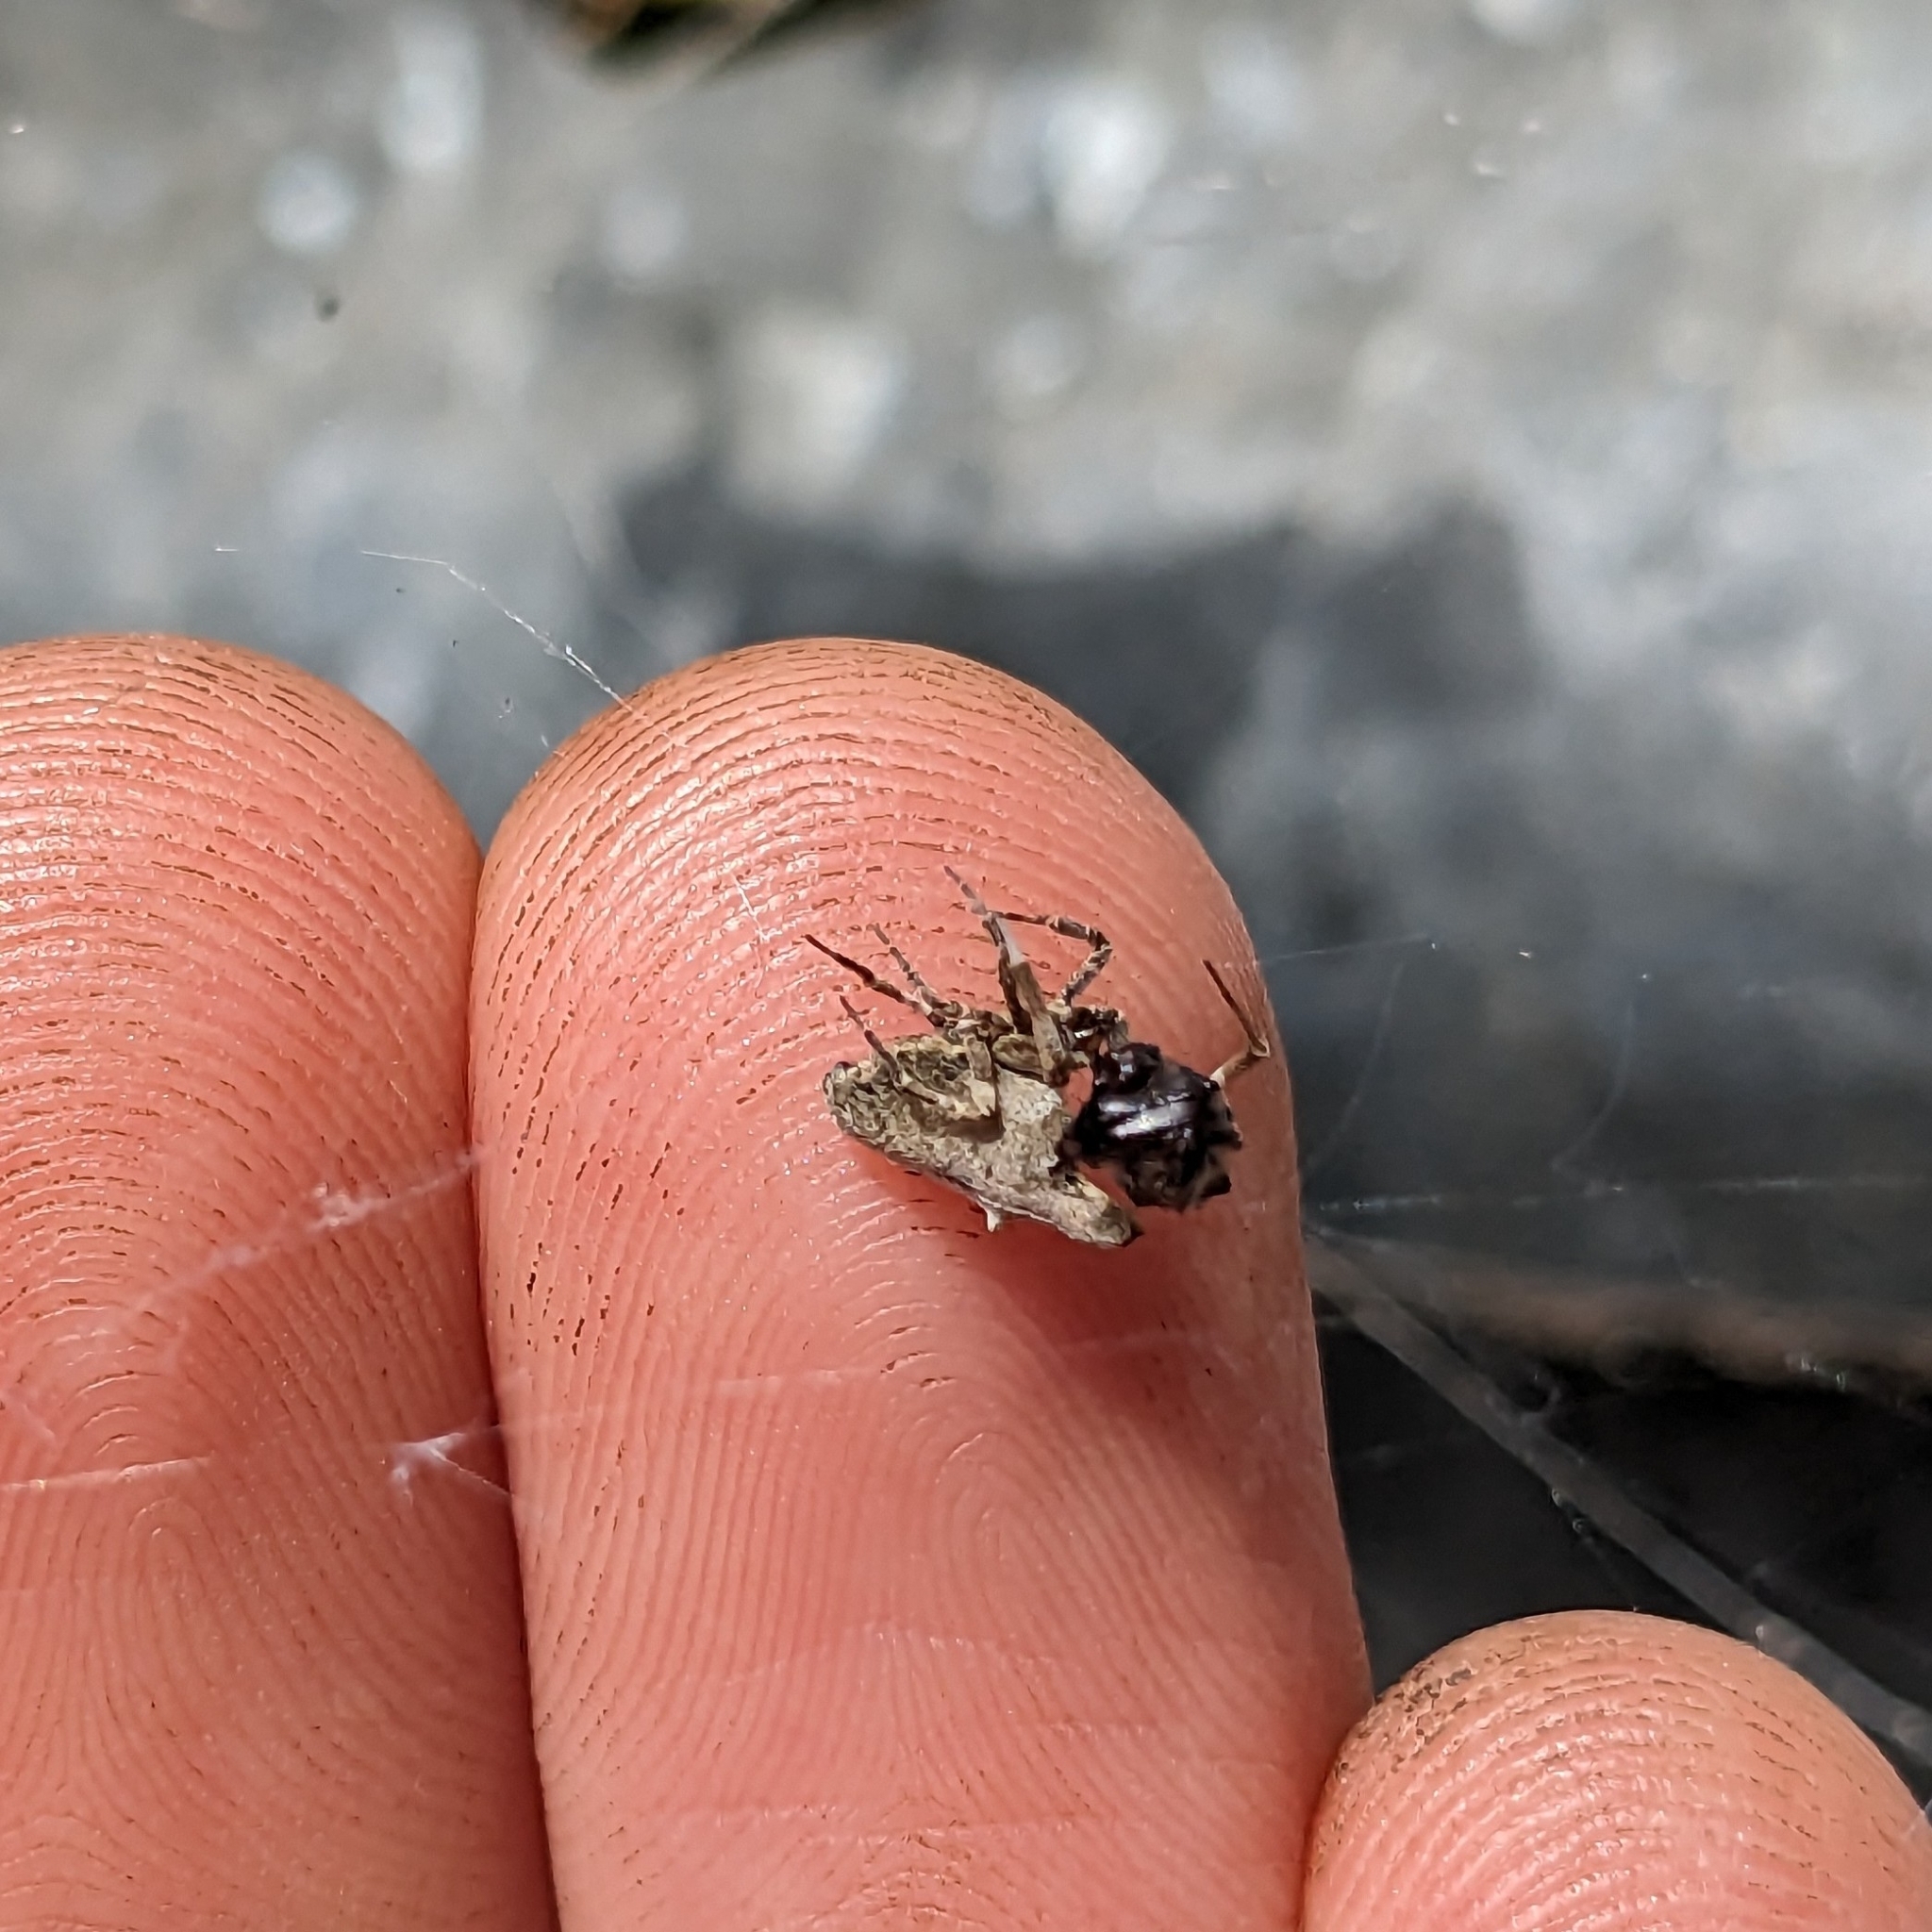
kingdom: Animalia
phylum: Arthropoda
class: Arachnida
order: Araneae
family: Uloboridae
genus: Philoponella
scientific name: Philoponella congregabilis
